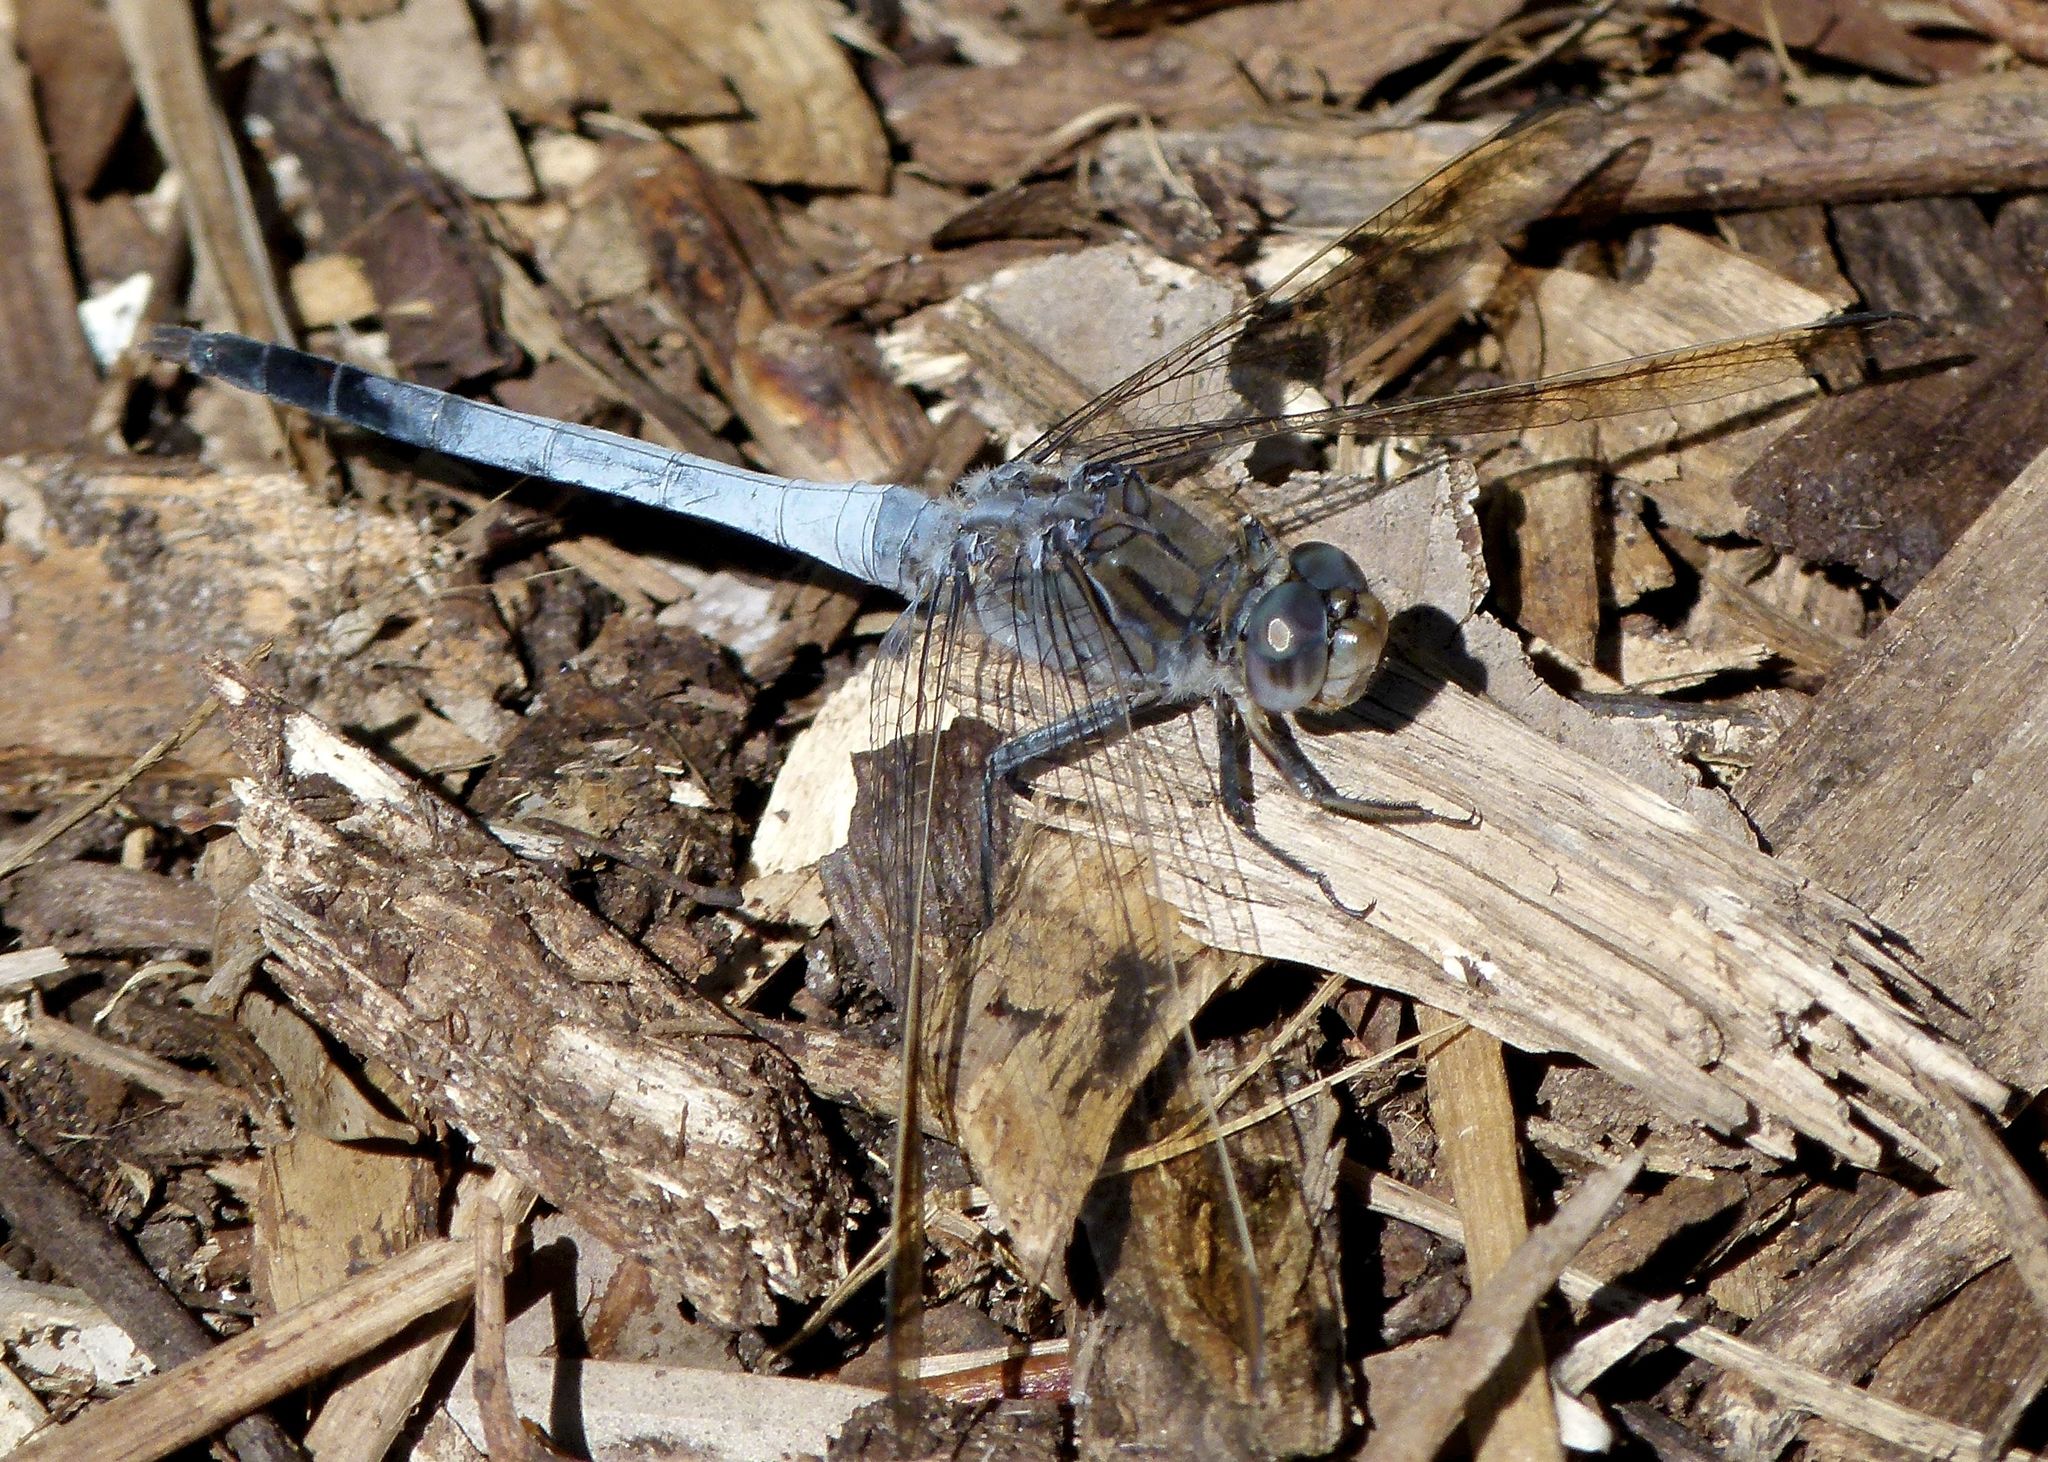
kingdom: Animalia
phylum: Arthropoda
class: Insecta
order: Odonata
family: Libellulidae
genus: Orthetrum
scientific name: Orthetrum caledonicum
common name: Blue skimmer
